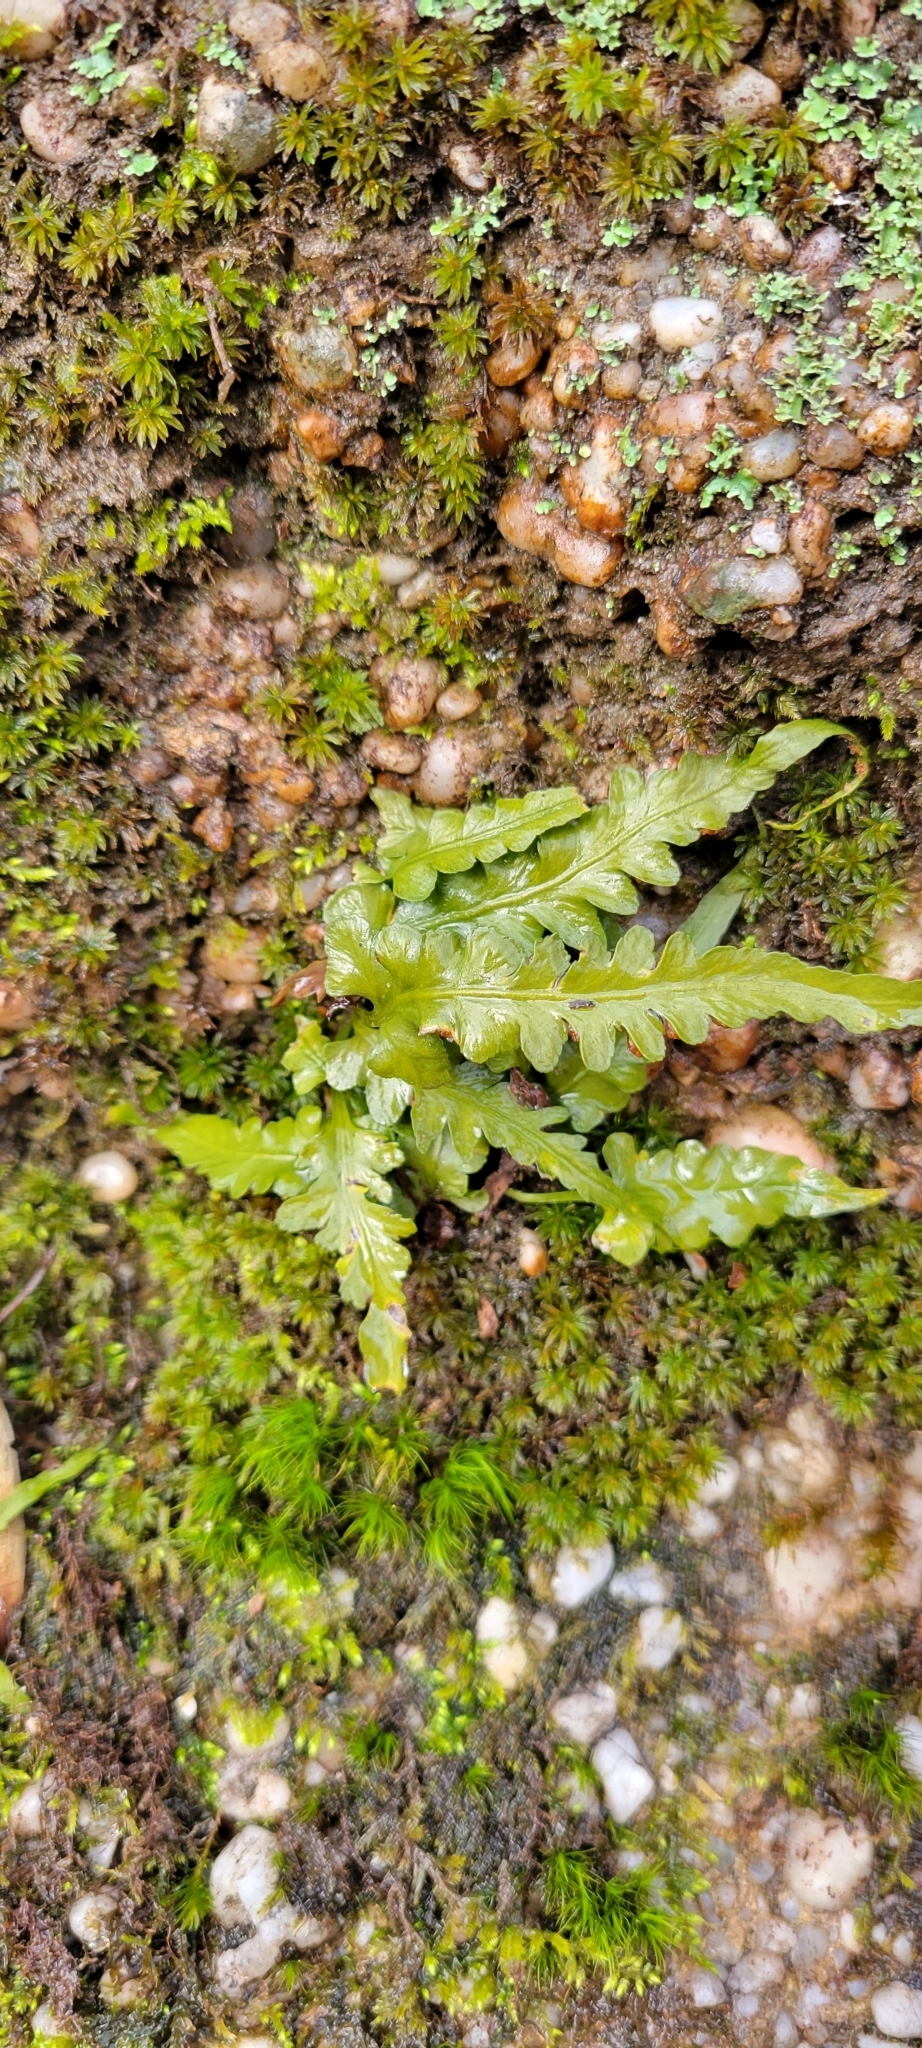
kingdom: Plantae
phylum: Tracheophyta
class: Polypodiopsida
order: Polypodiales
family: Aspleniaceae
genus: Asplenium
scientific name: Asplenium pinnatifidum
